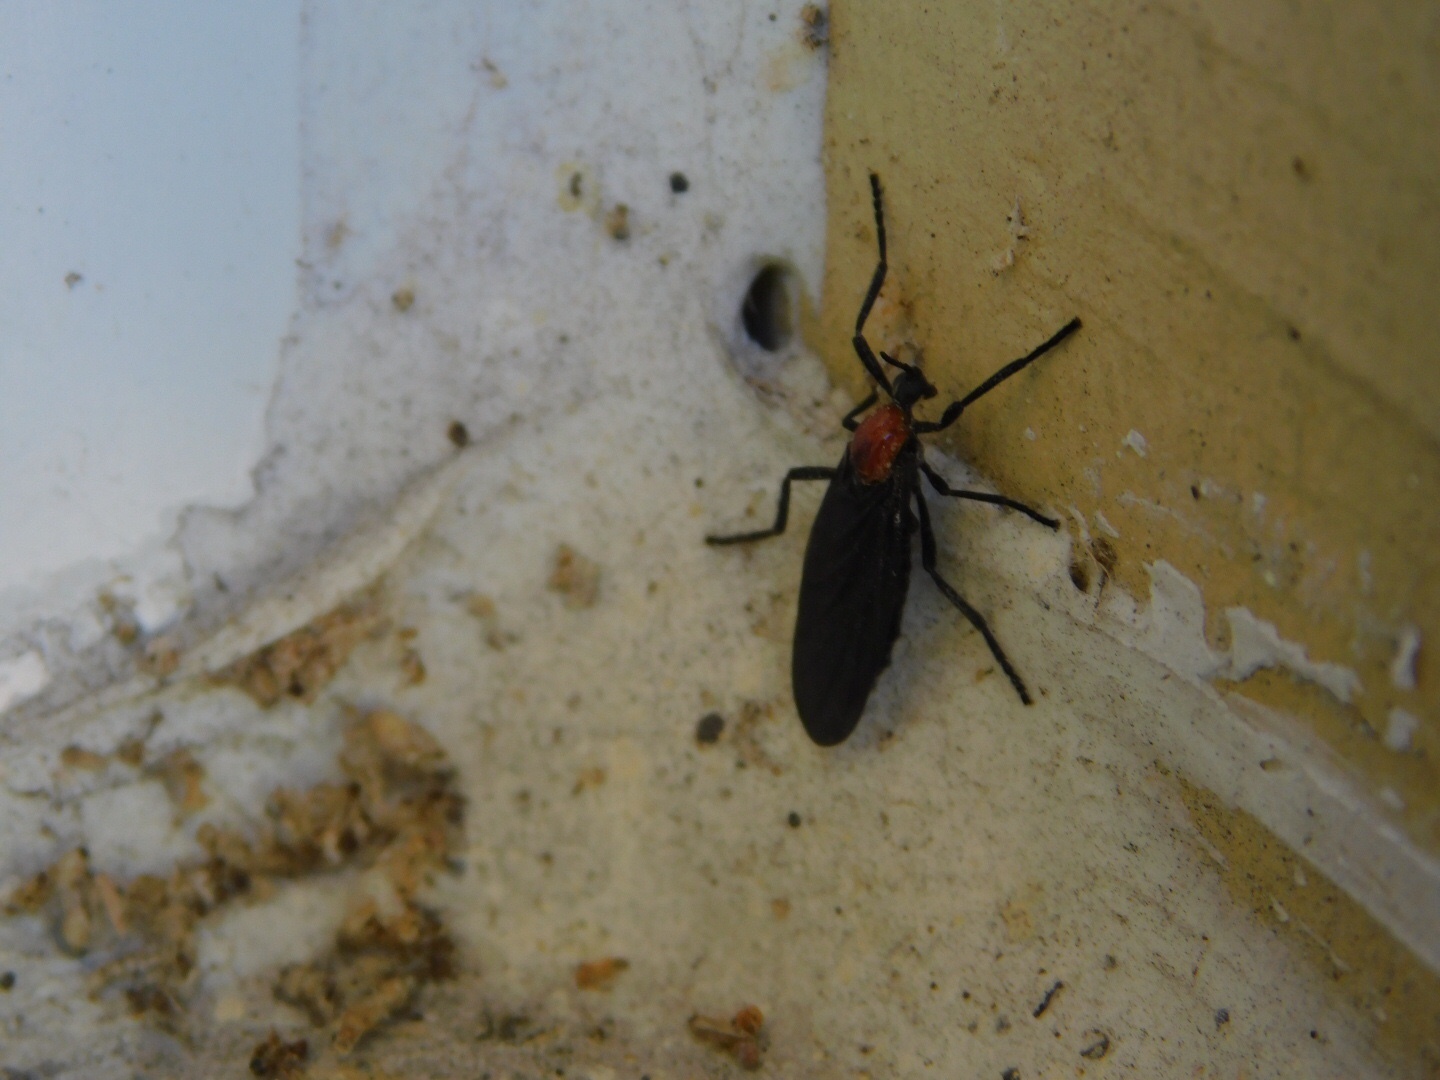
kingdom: Animalia
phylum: Arthropoda
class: Insecta
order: Diptera
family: Bibionidae
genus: Plecia
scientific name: Plecia nearctica
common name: March fly
